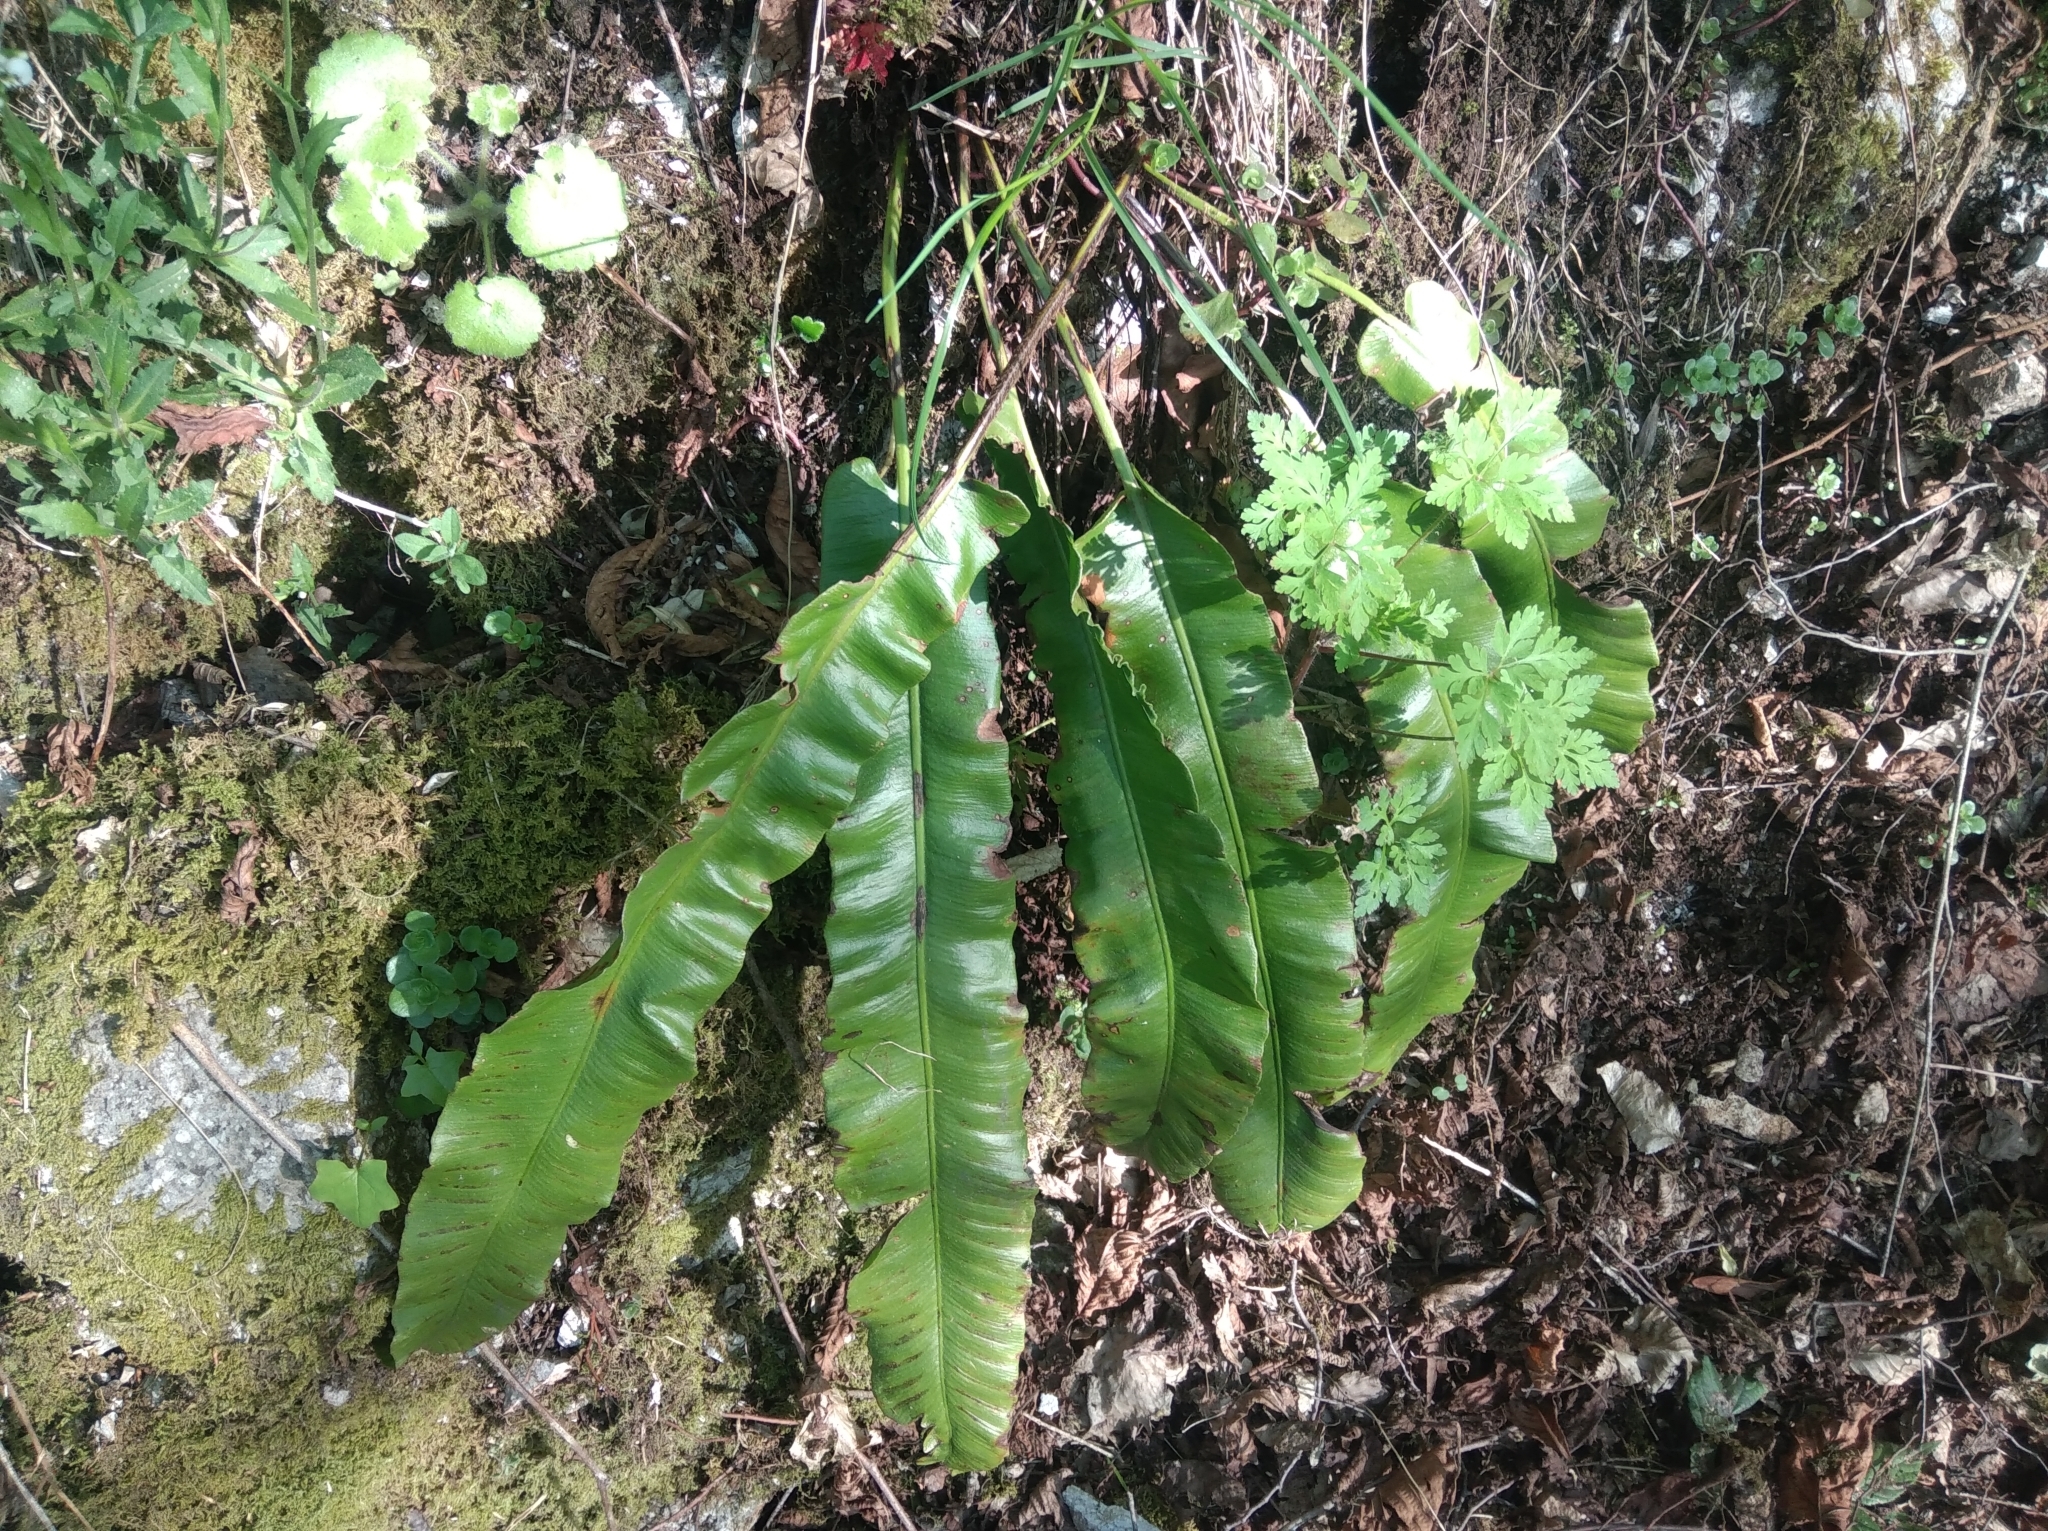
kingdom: Plantae
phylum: Tracheophyta
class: Polypodiopsida
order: Polypodiales
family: Aspleniaceae
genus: Asplenium
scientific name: Asplenium scolopendrium
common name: Hart's-tongue fern
